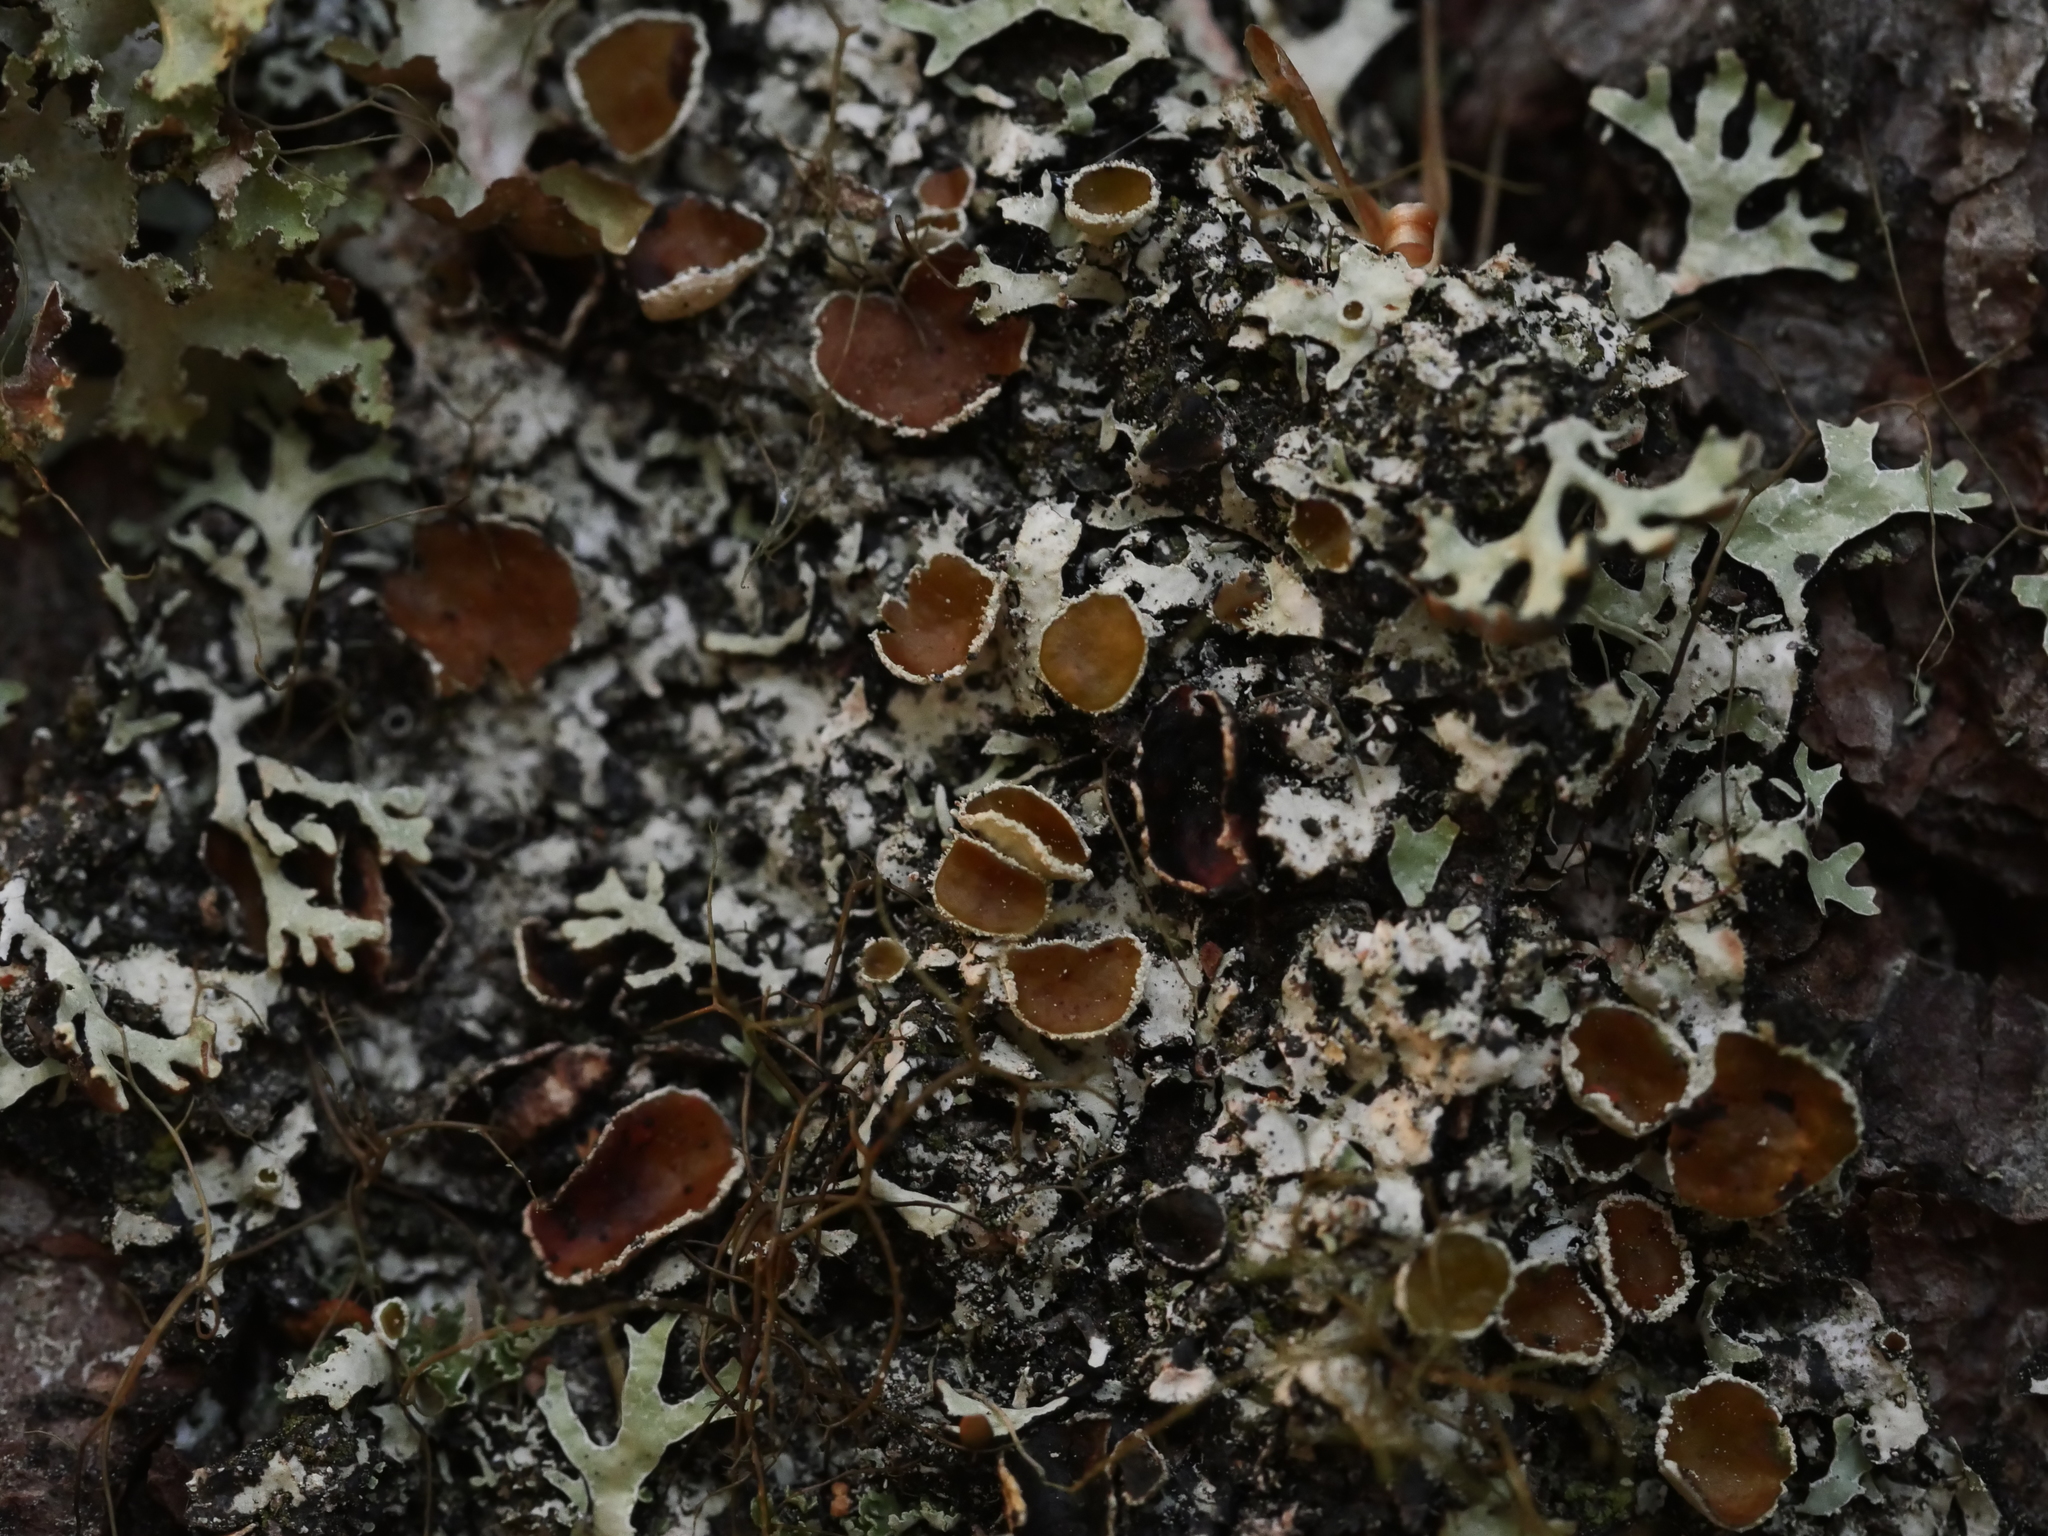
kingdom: Fungi
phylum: Ascomycota
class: Lecanoromycetes
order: Lecanorales
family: Parmeliaceae
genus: Parmelia
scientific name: Parmelia squarrosa
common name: Bottle brush shield lichen
